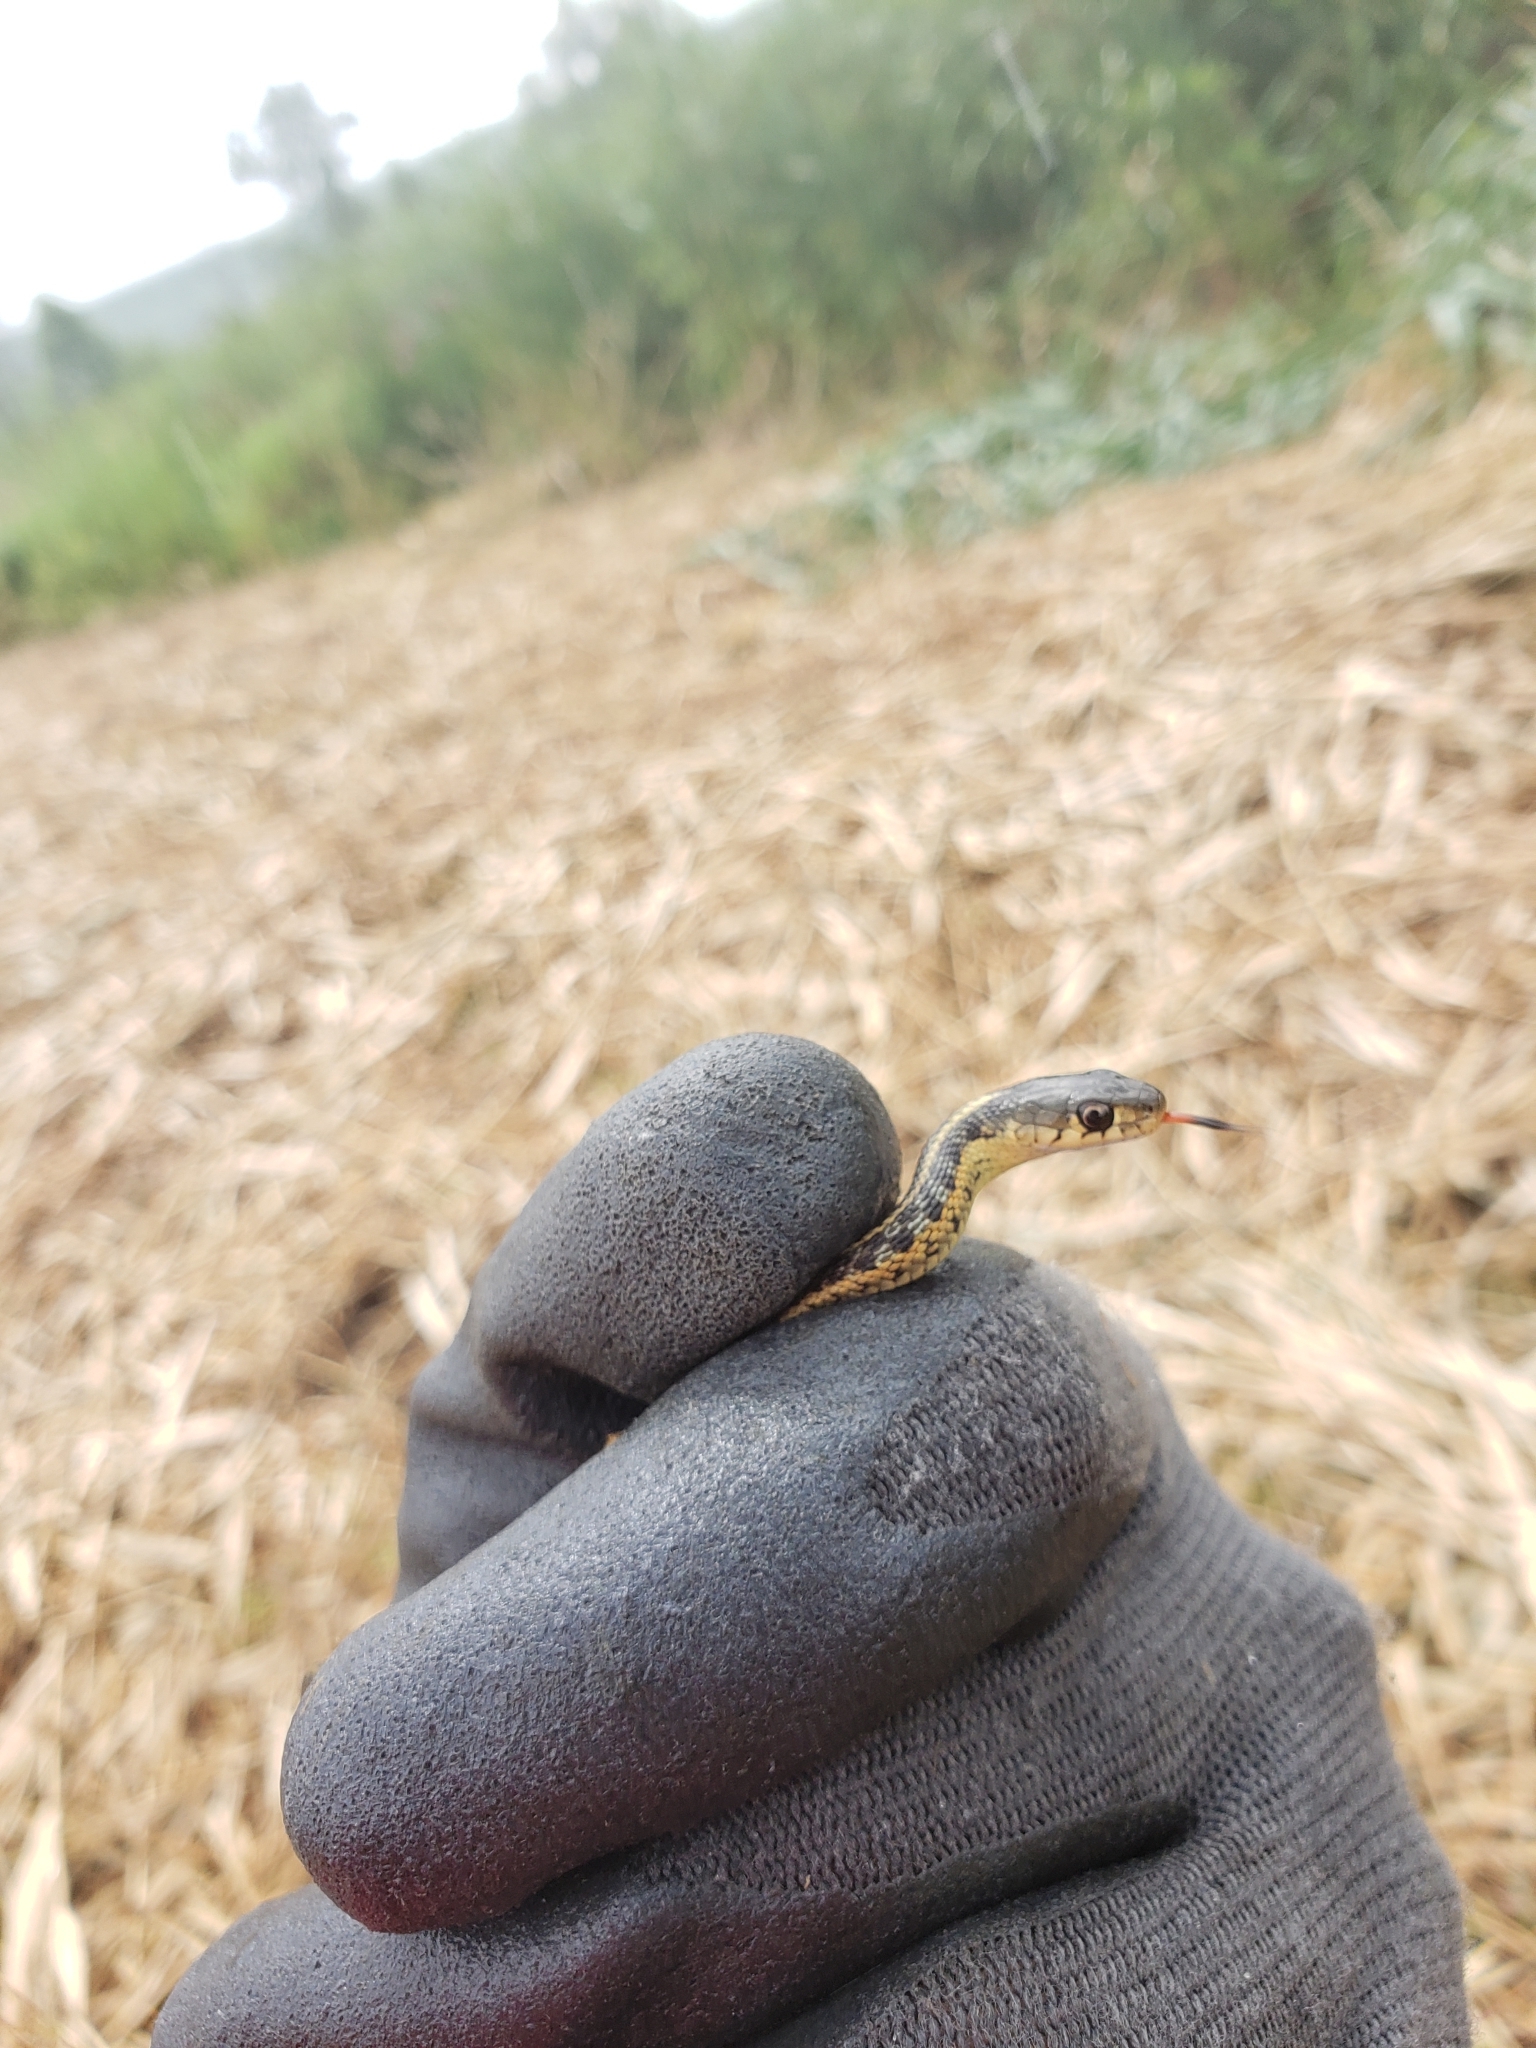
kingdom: Animalia
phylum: Chordata
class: Squamata
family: Colubridae
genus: Thamnophis
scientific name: Thamnophis sirtalis
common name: Common garter snake
